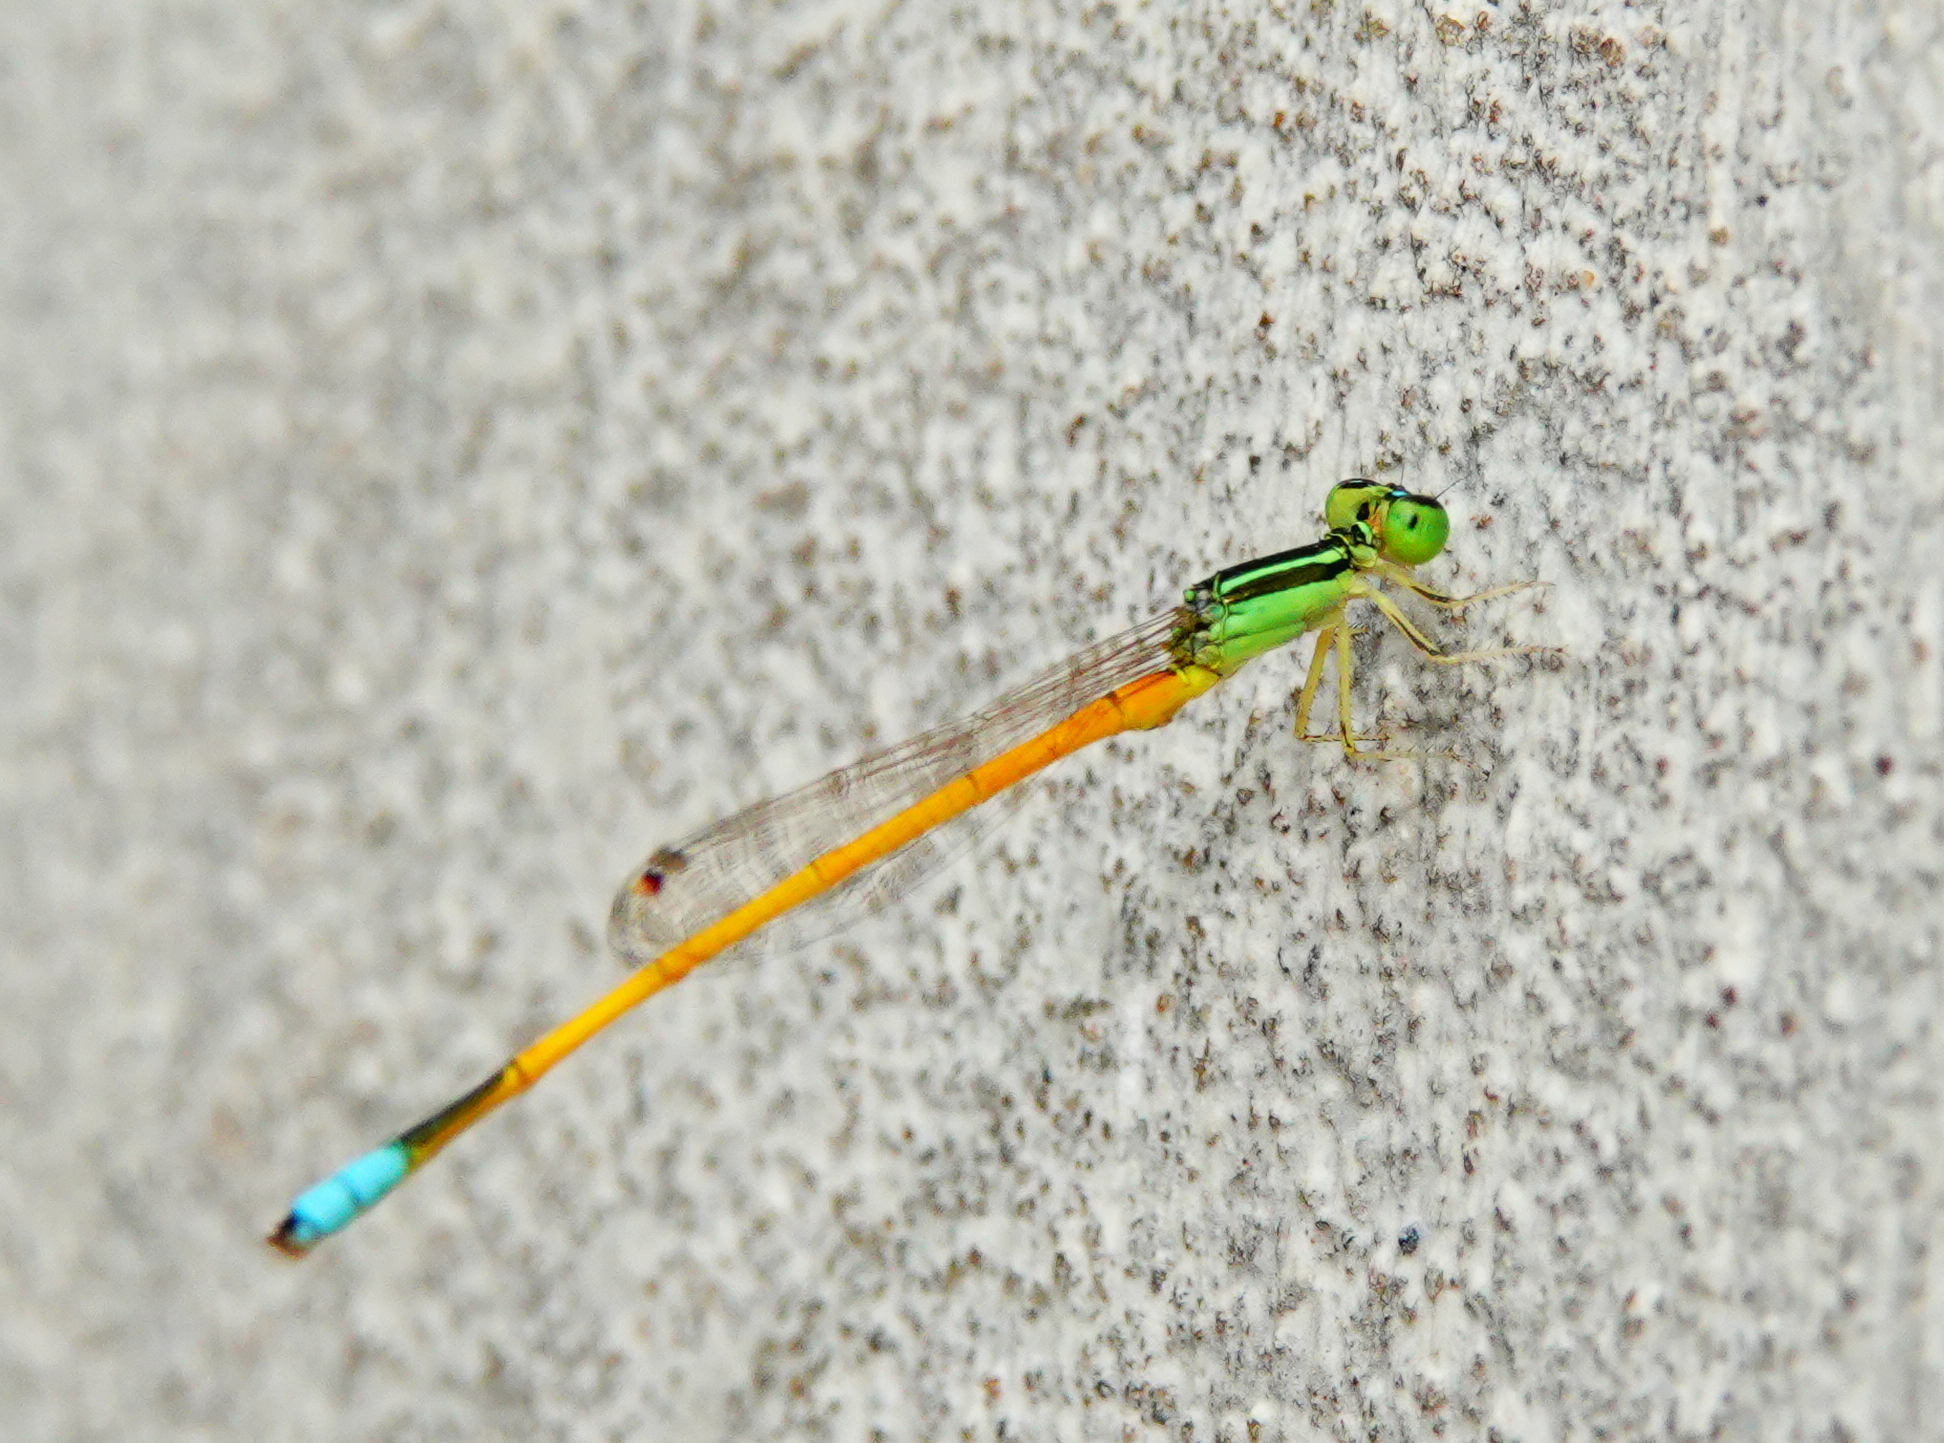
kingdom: Animalia
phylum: Arthropoda
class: Insecta
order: Odonata
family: Coenagrionidae
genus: Ischnura
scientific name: Ischnura rubilio
